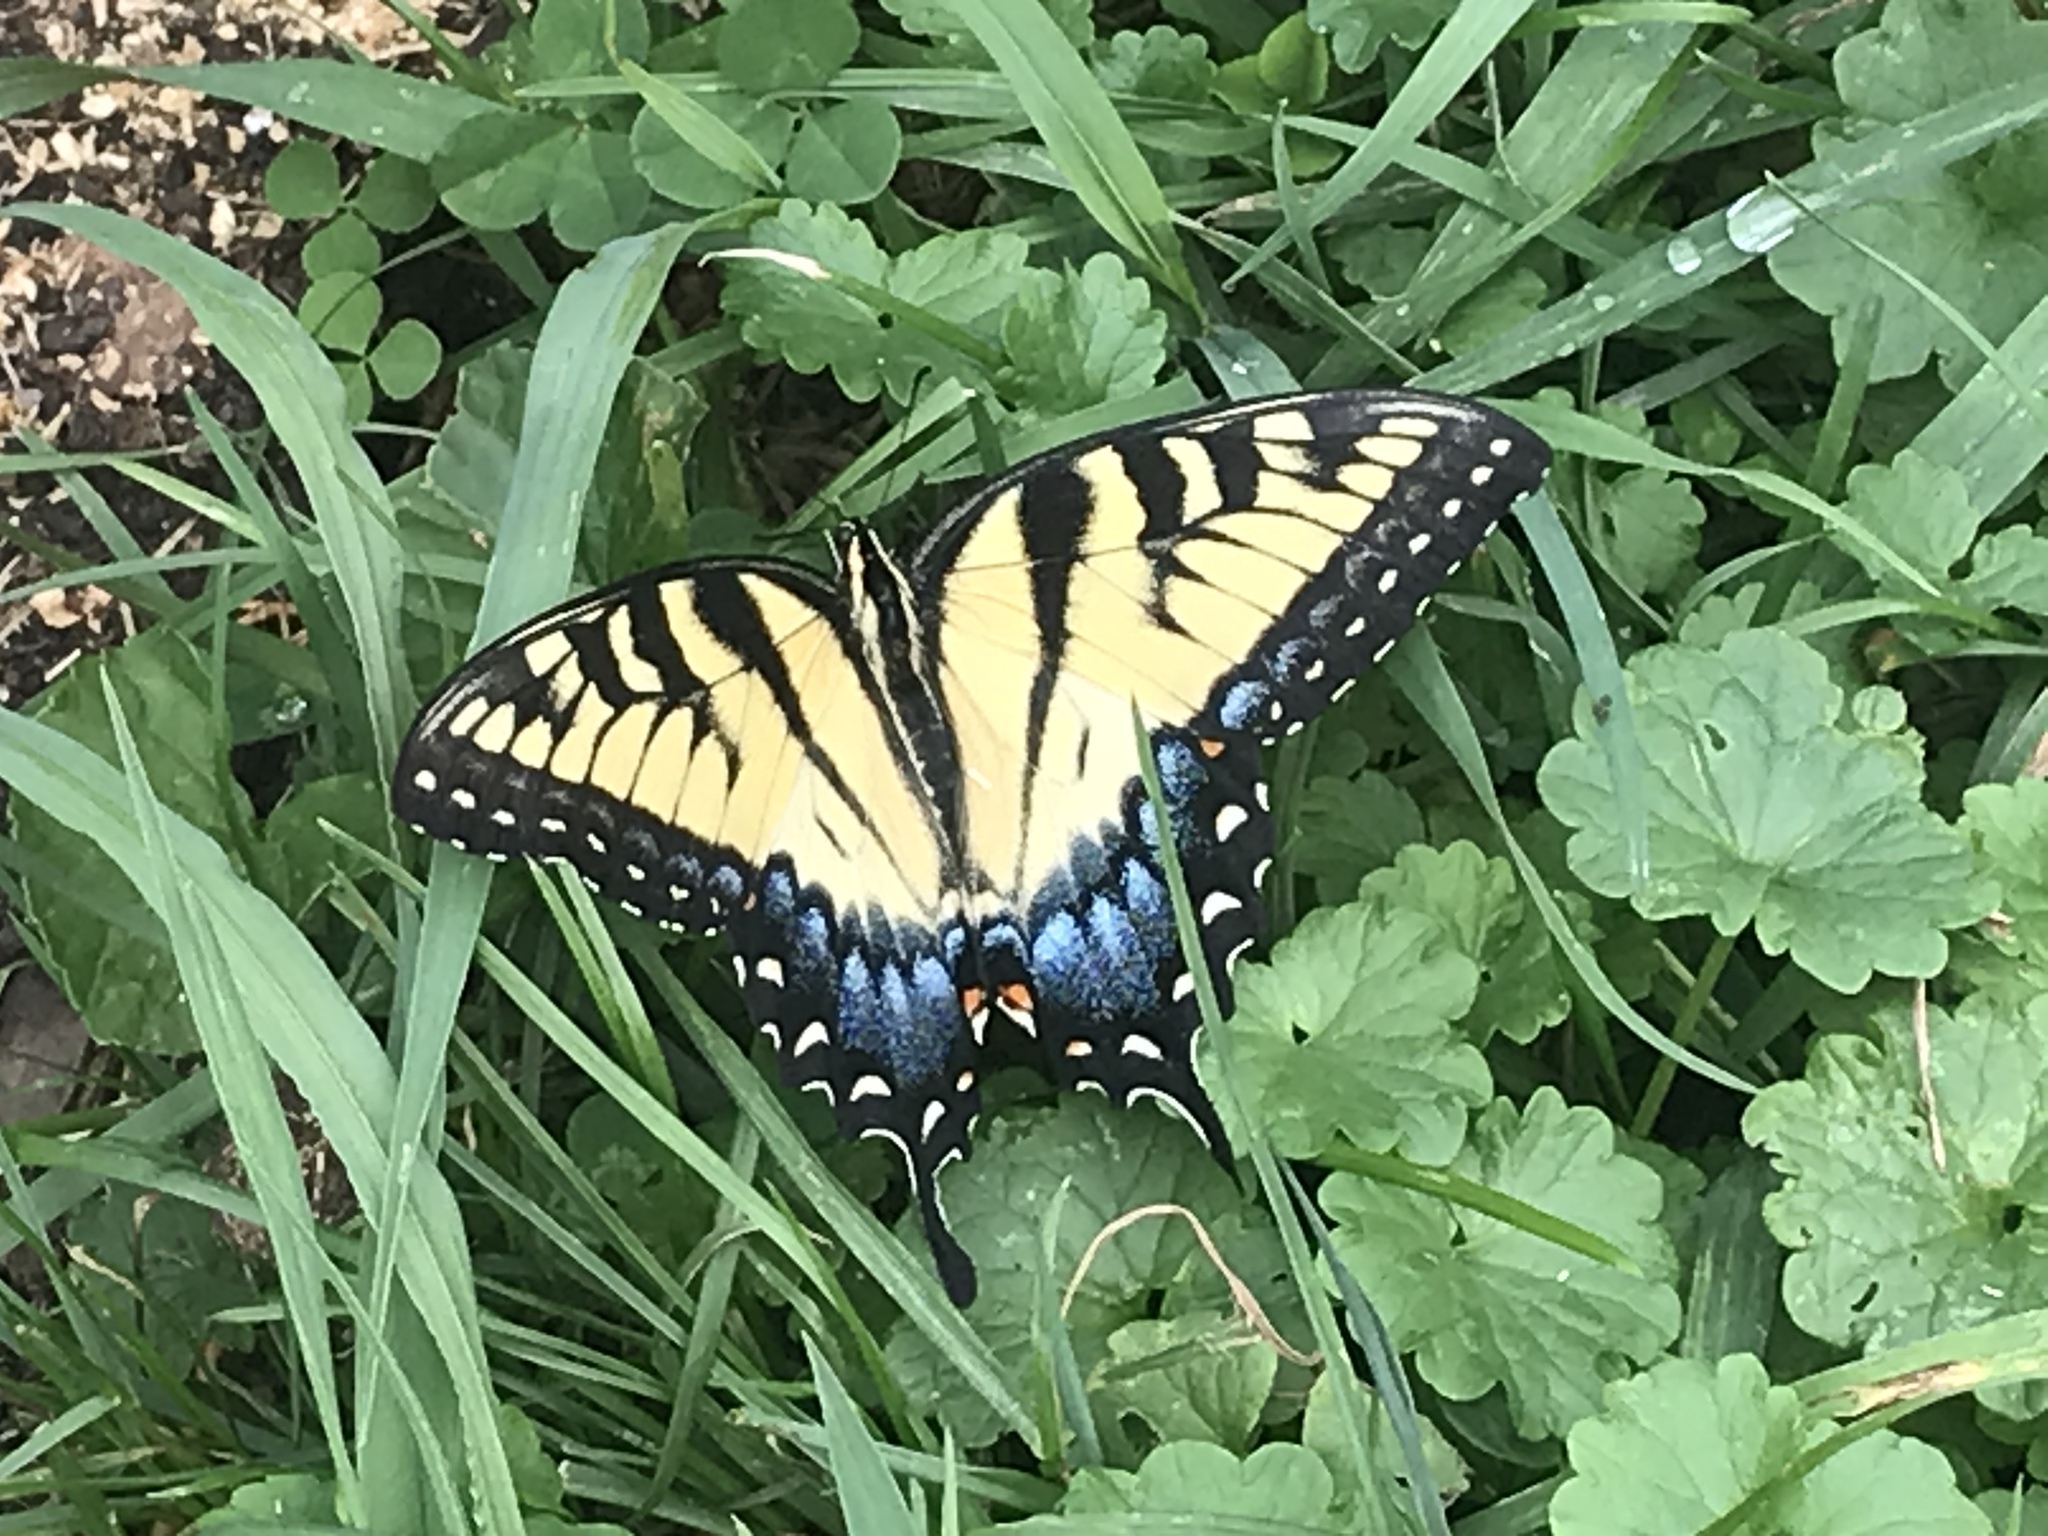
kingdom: Animalia
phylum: Arthropoda
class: Insecta
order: Lepidoptera
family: Papilionidae
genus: Papilio
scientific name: Papilio glaucus
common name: Tiger swallowtail
